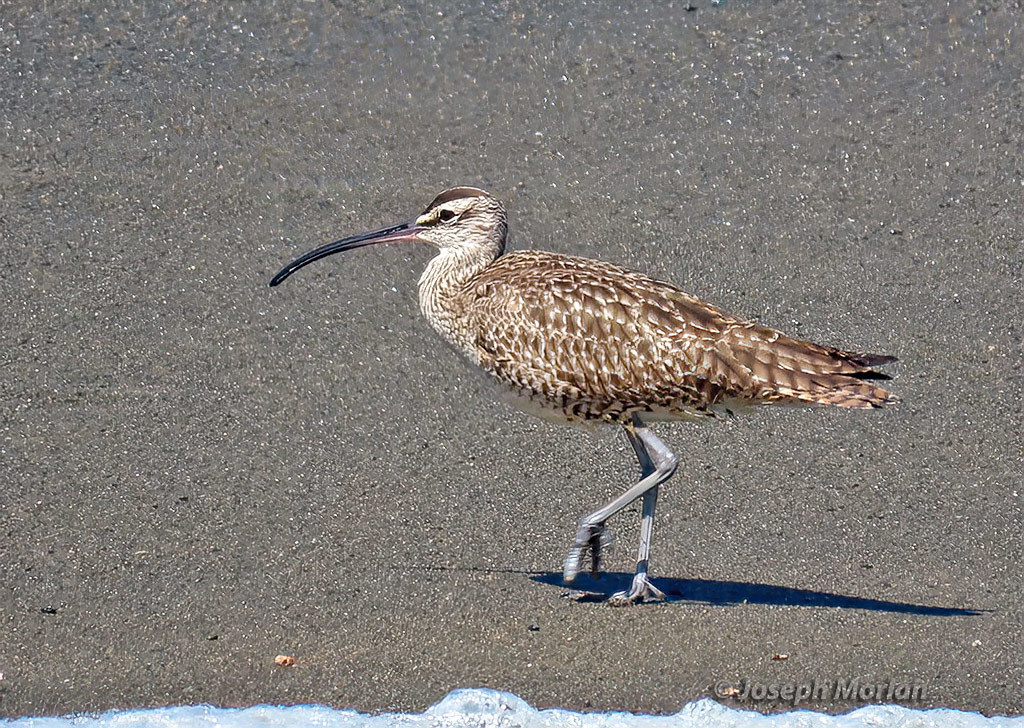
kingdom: Animalia
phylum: Chordata
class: Aves
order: Charadriiformes
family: Scolopacidae
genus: Numenius
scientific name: Numenius phaeopus
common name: Whimbrel
